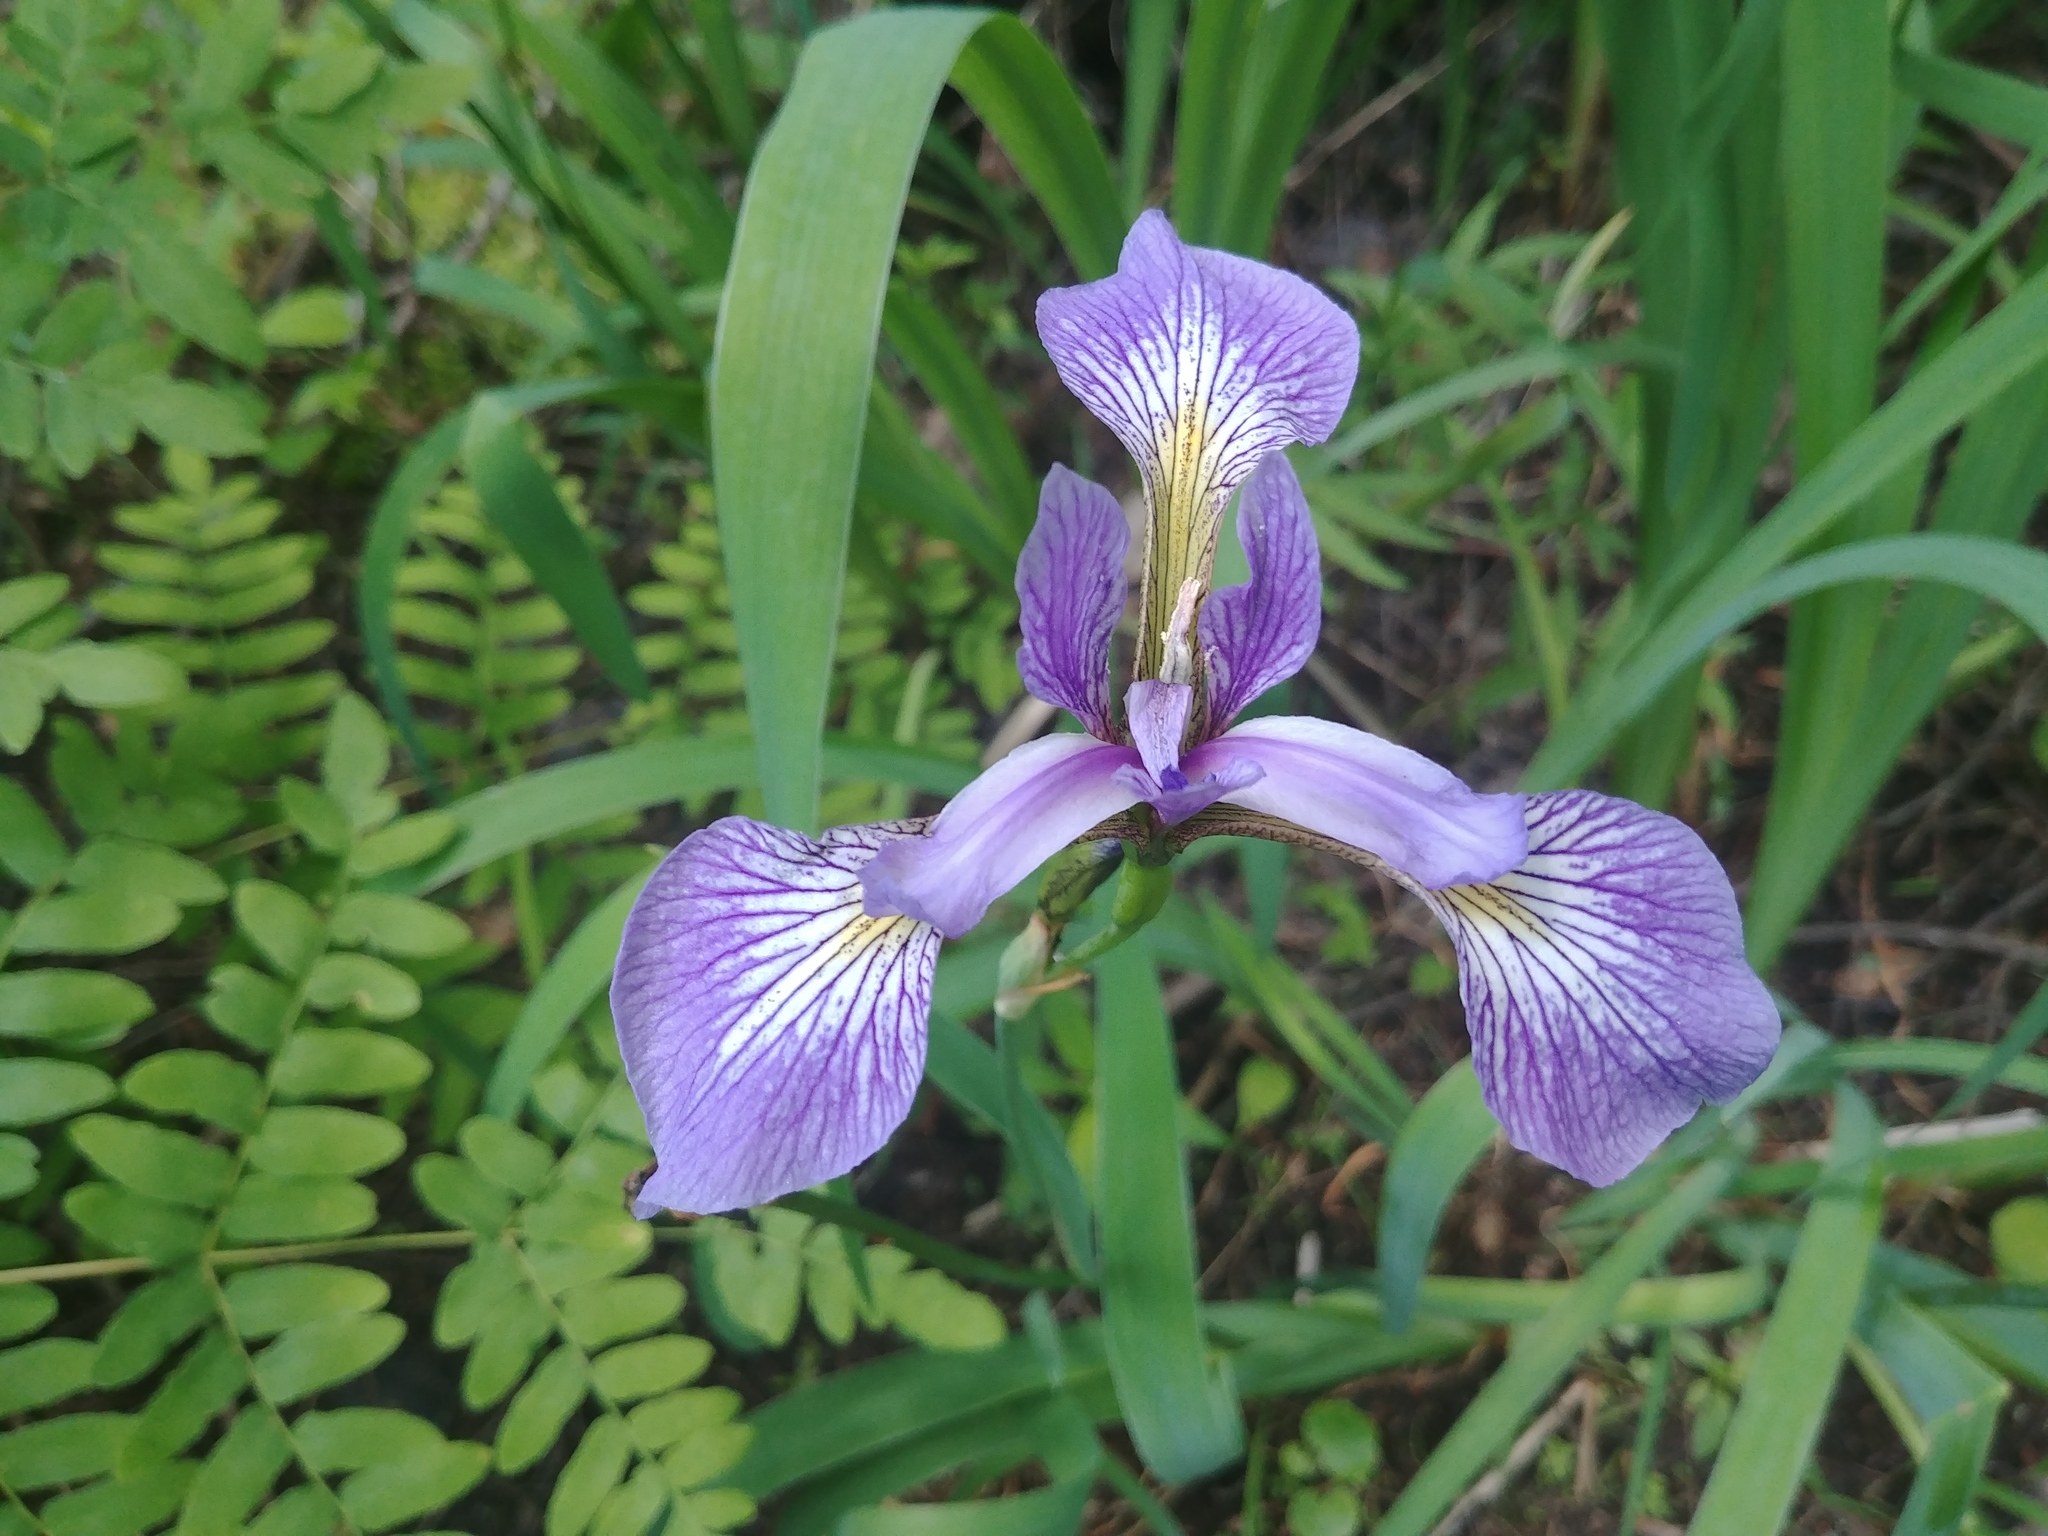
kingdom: Plantae
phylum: Tracheophyta
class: Liliopsida
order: Asparagales
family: Iridaceae
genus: Iris
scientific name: Iris versicolor
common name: Purple iris
